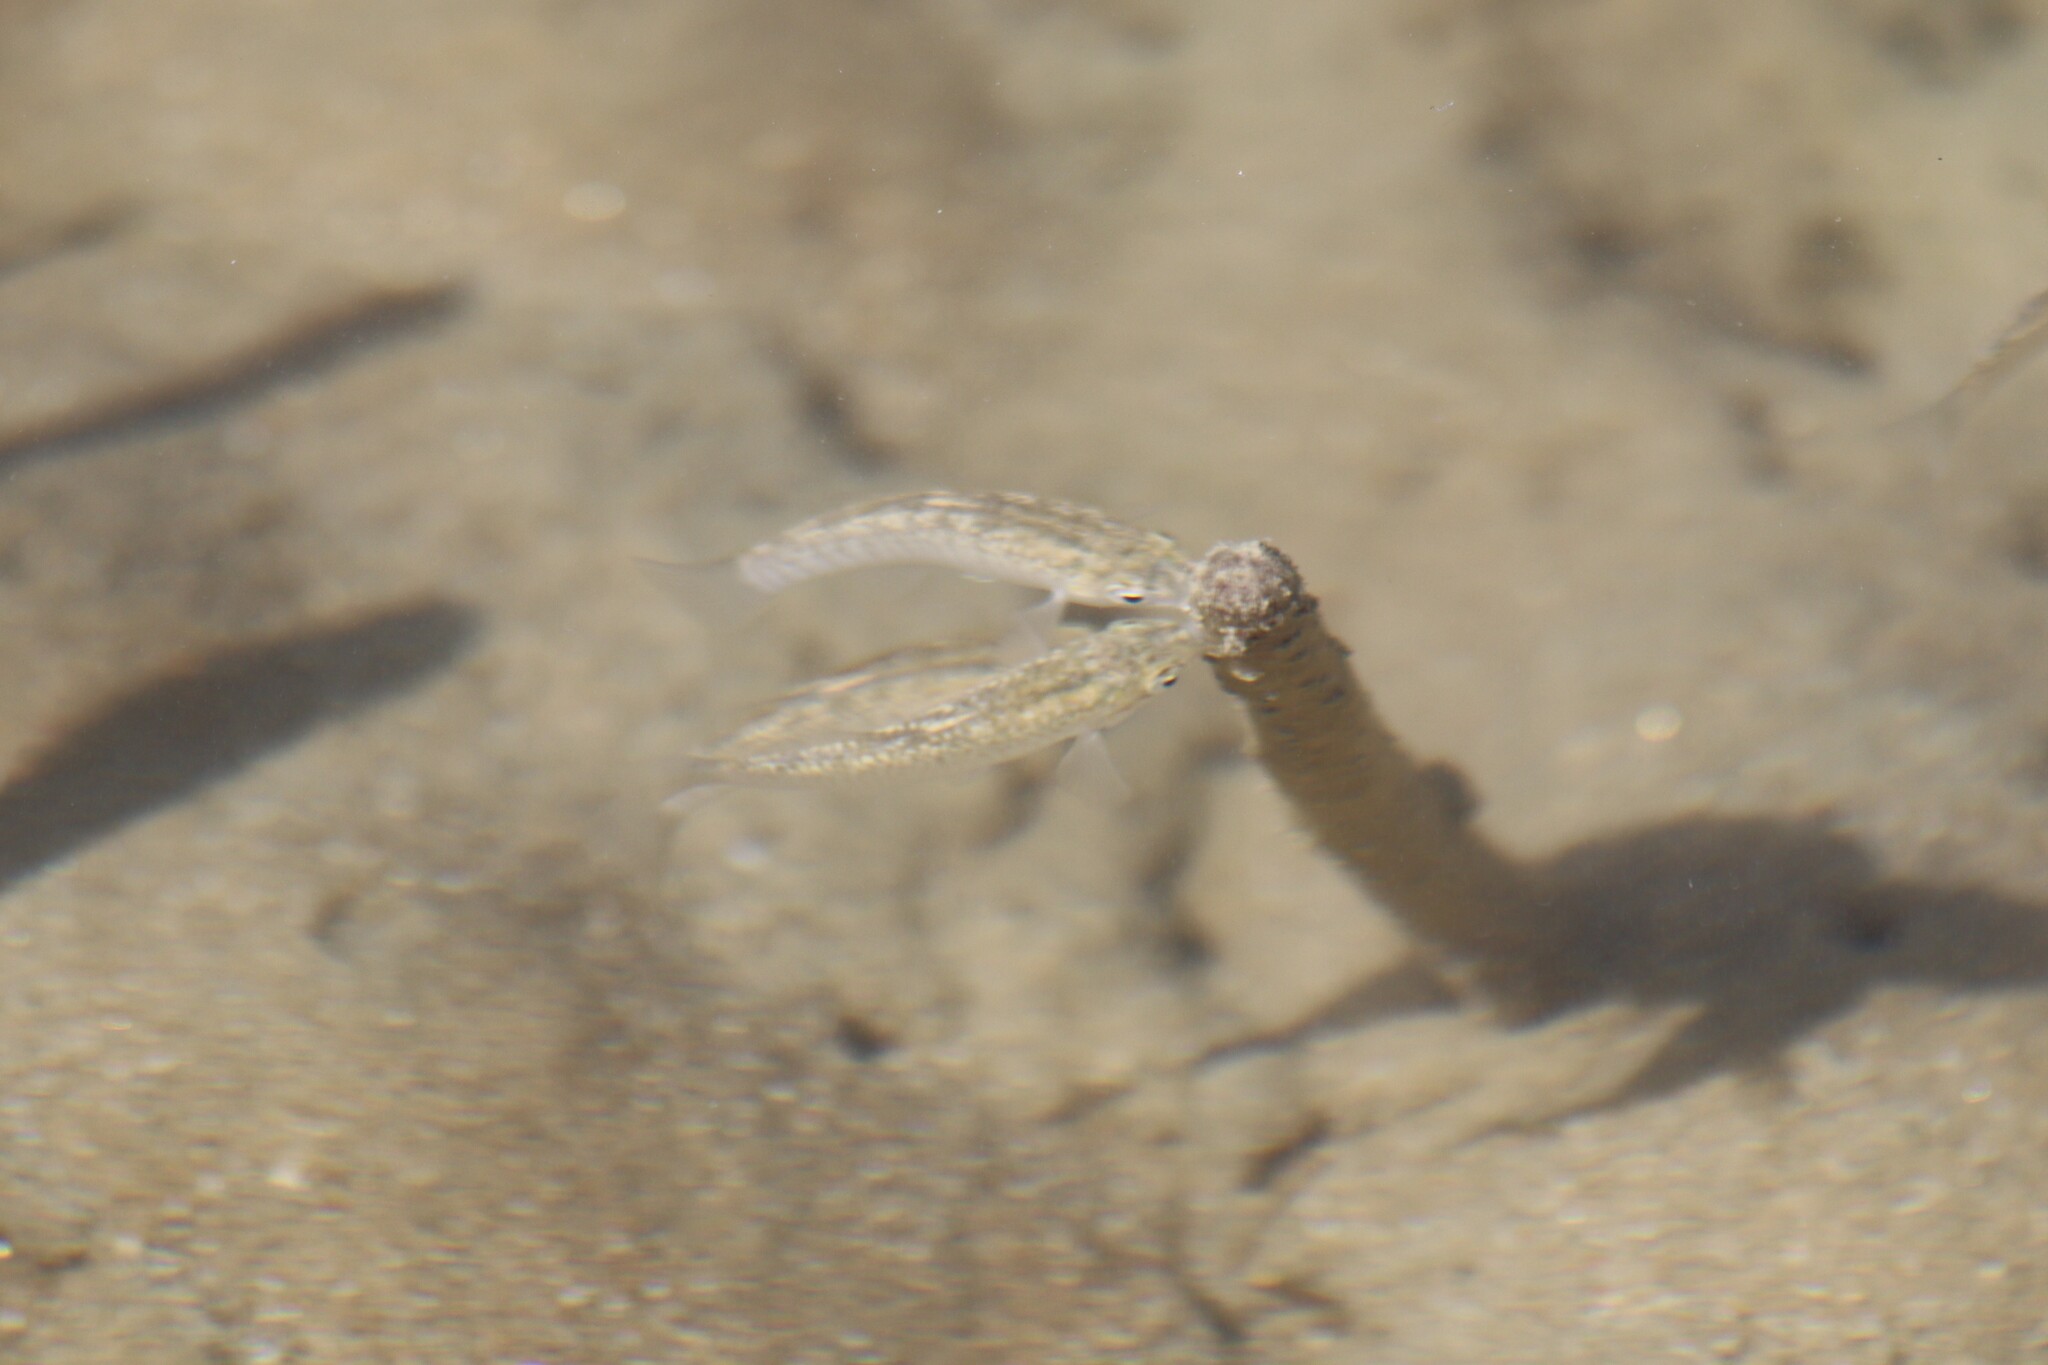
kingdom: Animalia
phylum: Chordata
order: Cyprinodontiformes
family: Cyprinodontidae
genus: Aphanius
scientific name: Aphanius dispar
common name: Arabian toothcarp
